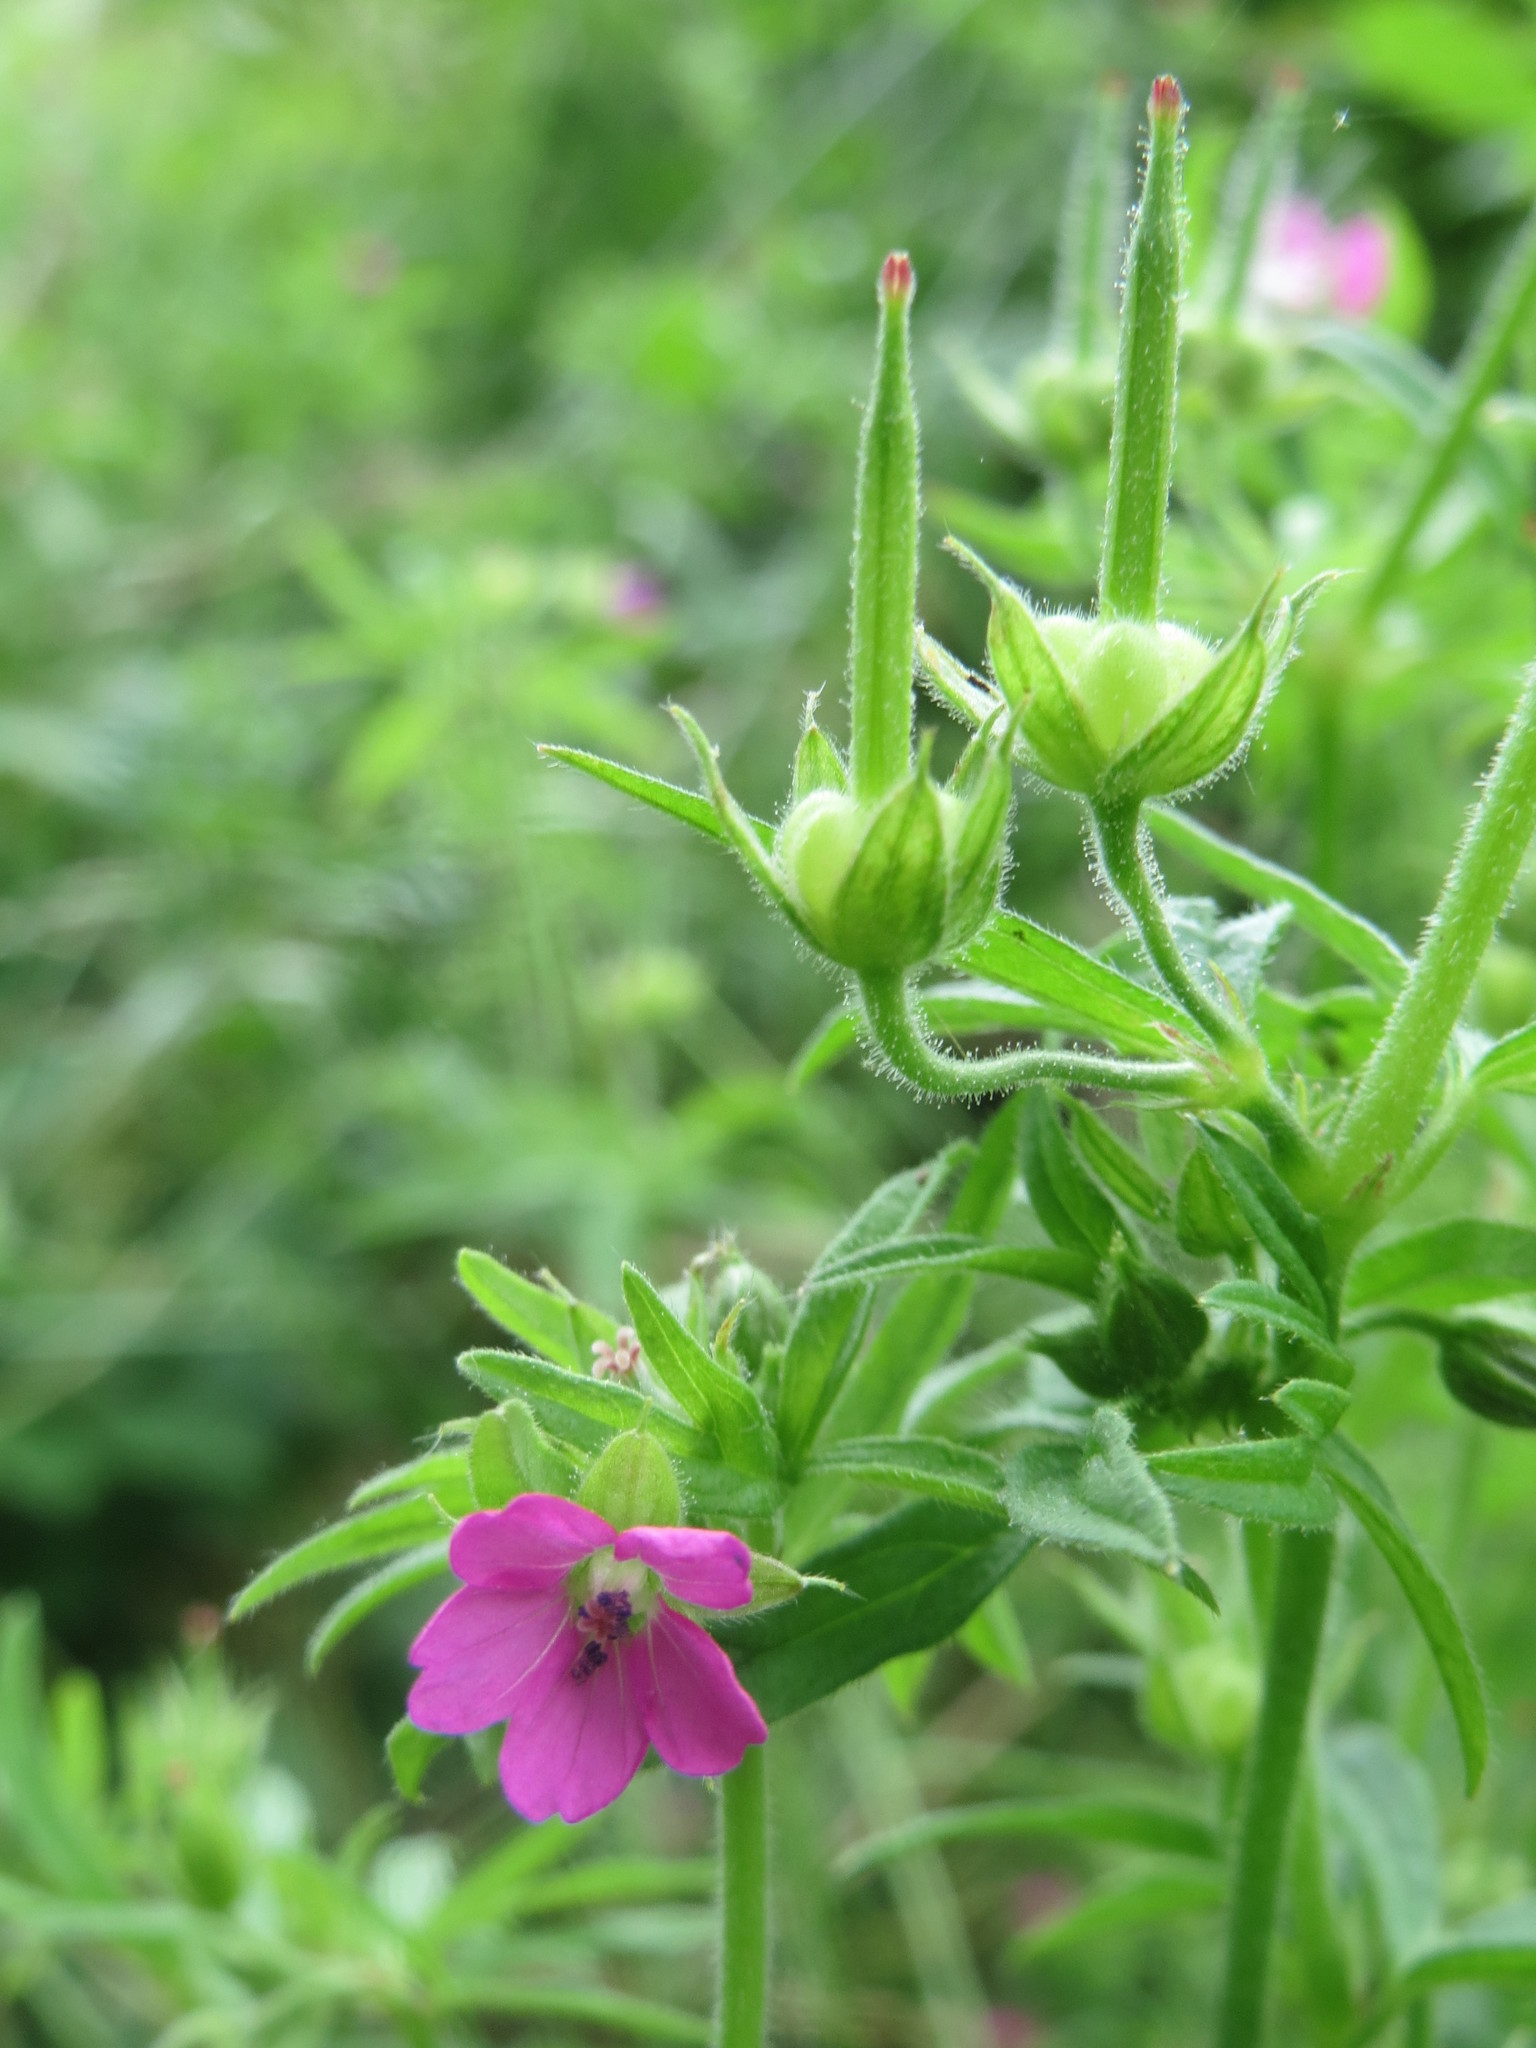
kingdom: Plantae
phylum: Tracheophyta
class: Magnoliopsida
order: Geraniales
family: Geraniaceae
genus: Geranium
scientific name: Geranium dissectum
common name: Cut-leaved crane's-bill
